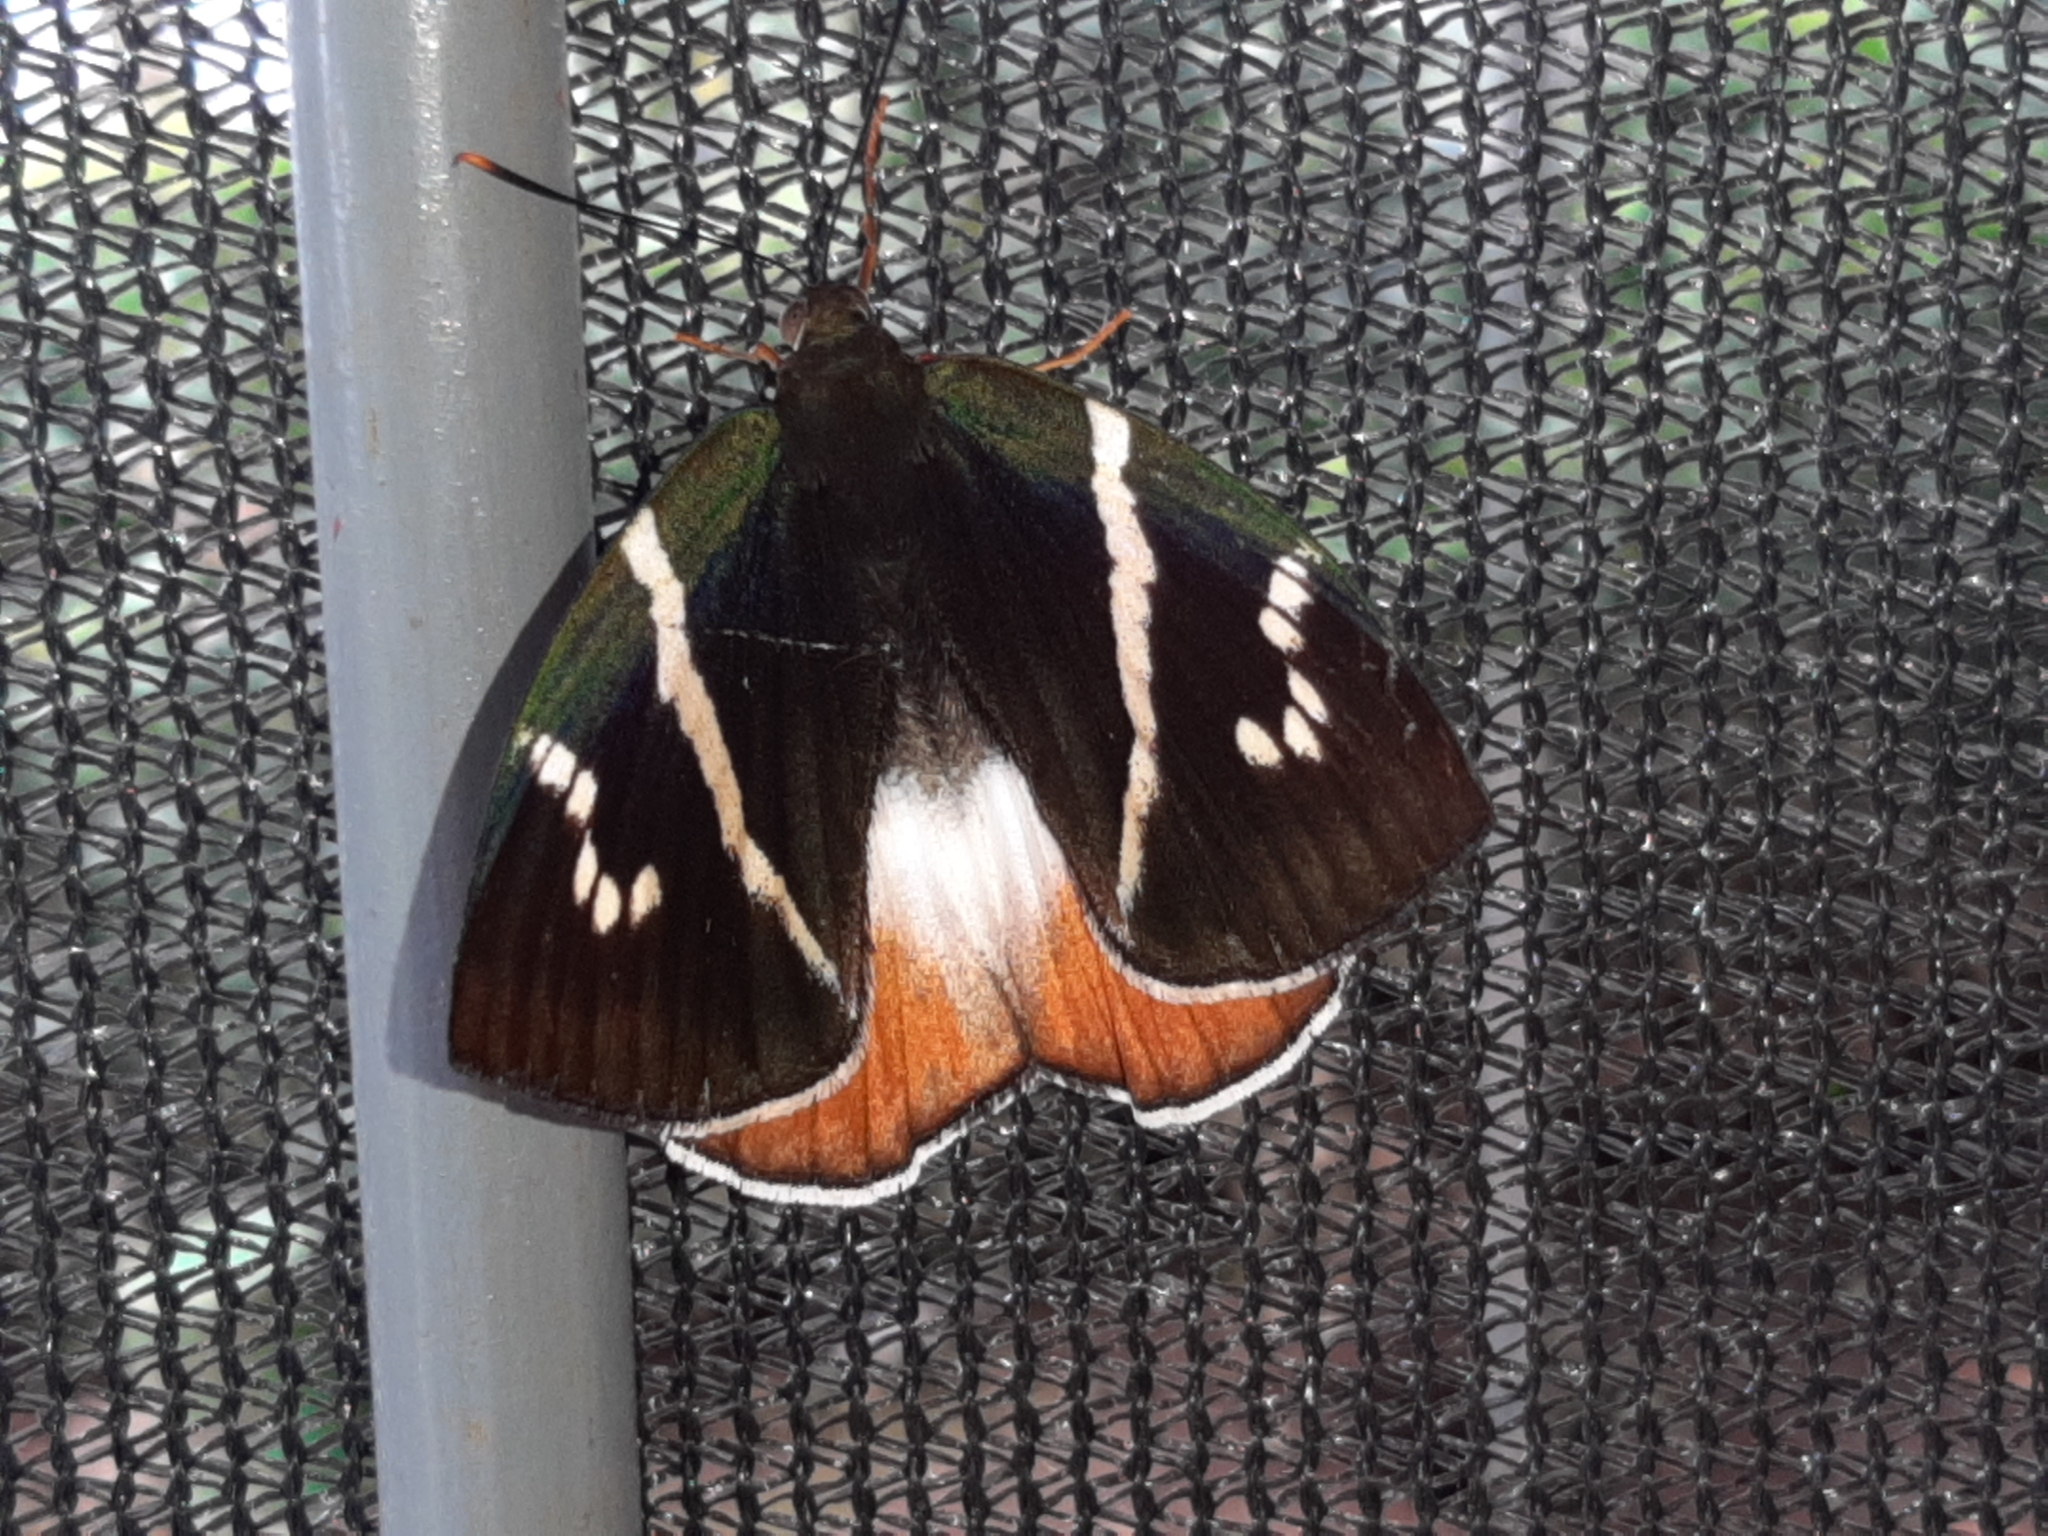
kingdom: Animalia
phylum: Arthropoda
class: Insecta
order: Lepidoptera
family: Castniidae
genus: Castniomera
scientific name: Castniomera drucei
